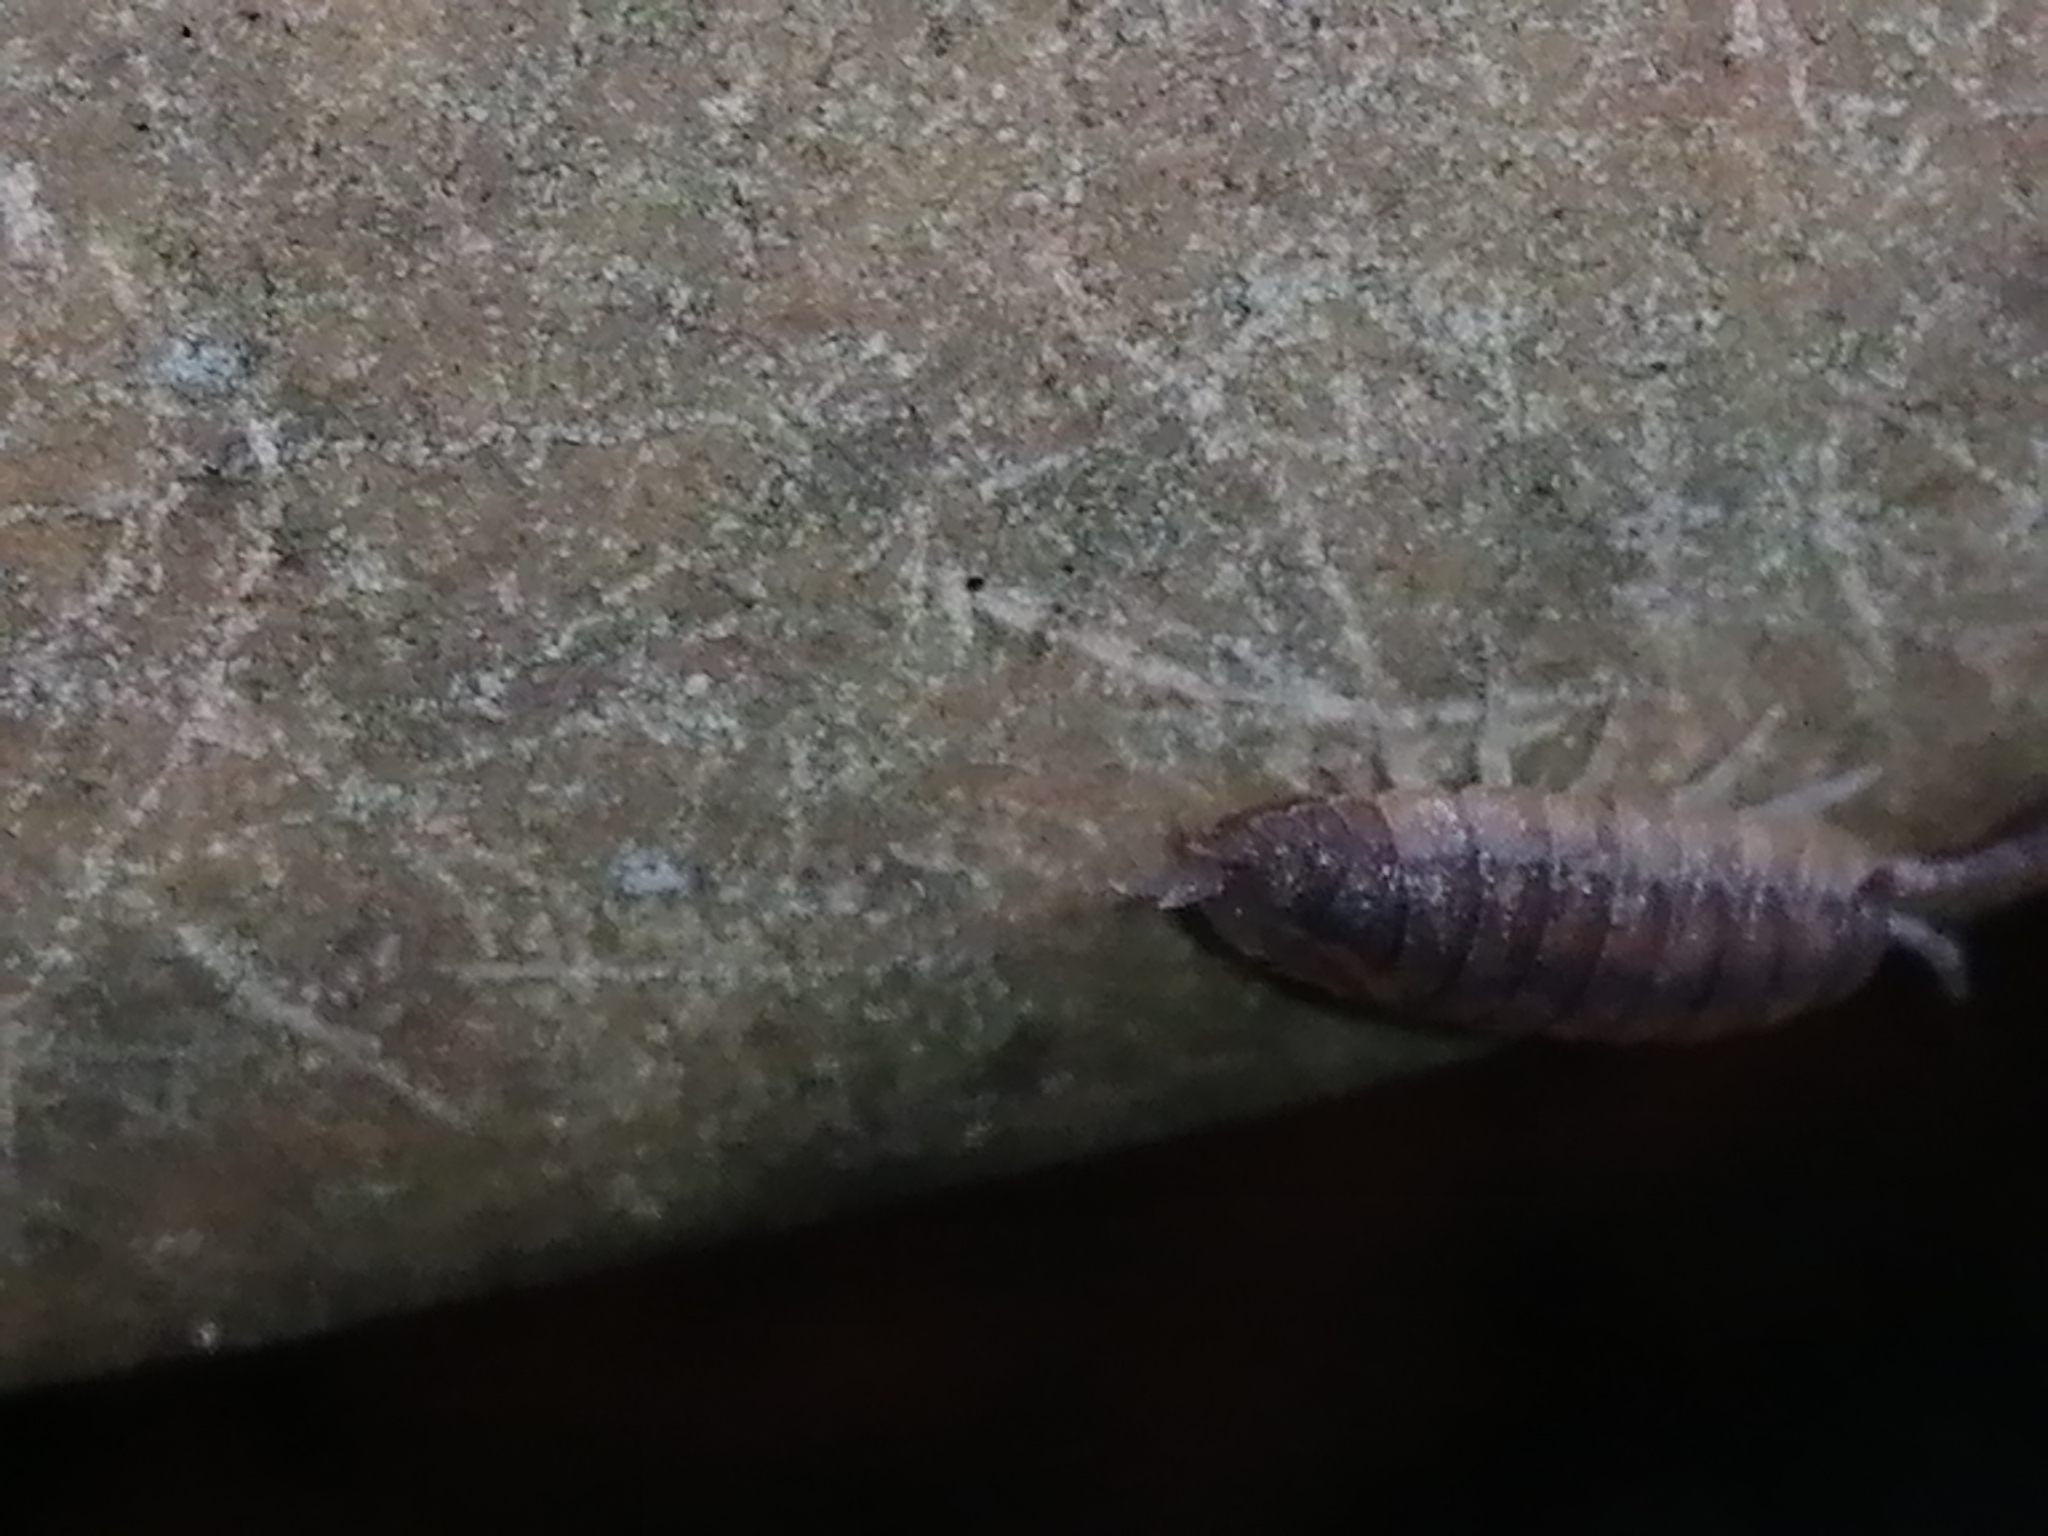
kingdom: Animalia
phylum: Arthropoda
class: Malacostraca
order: Isopoda
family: Porcellionidae
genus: Porcellio
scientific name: Porcellio scaber
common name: Common rough woodlouse
